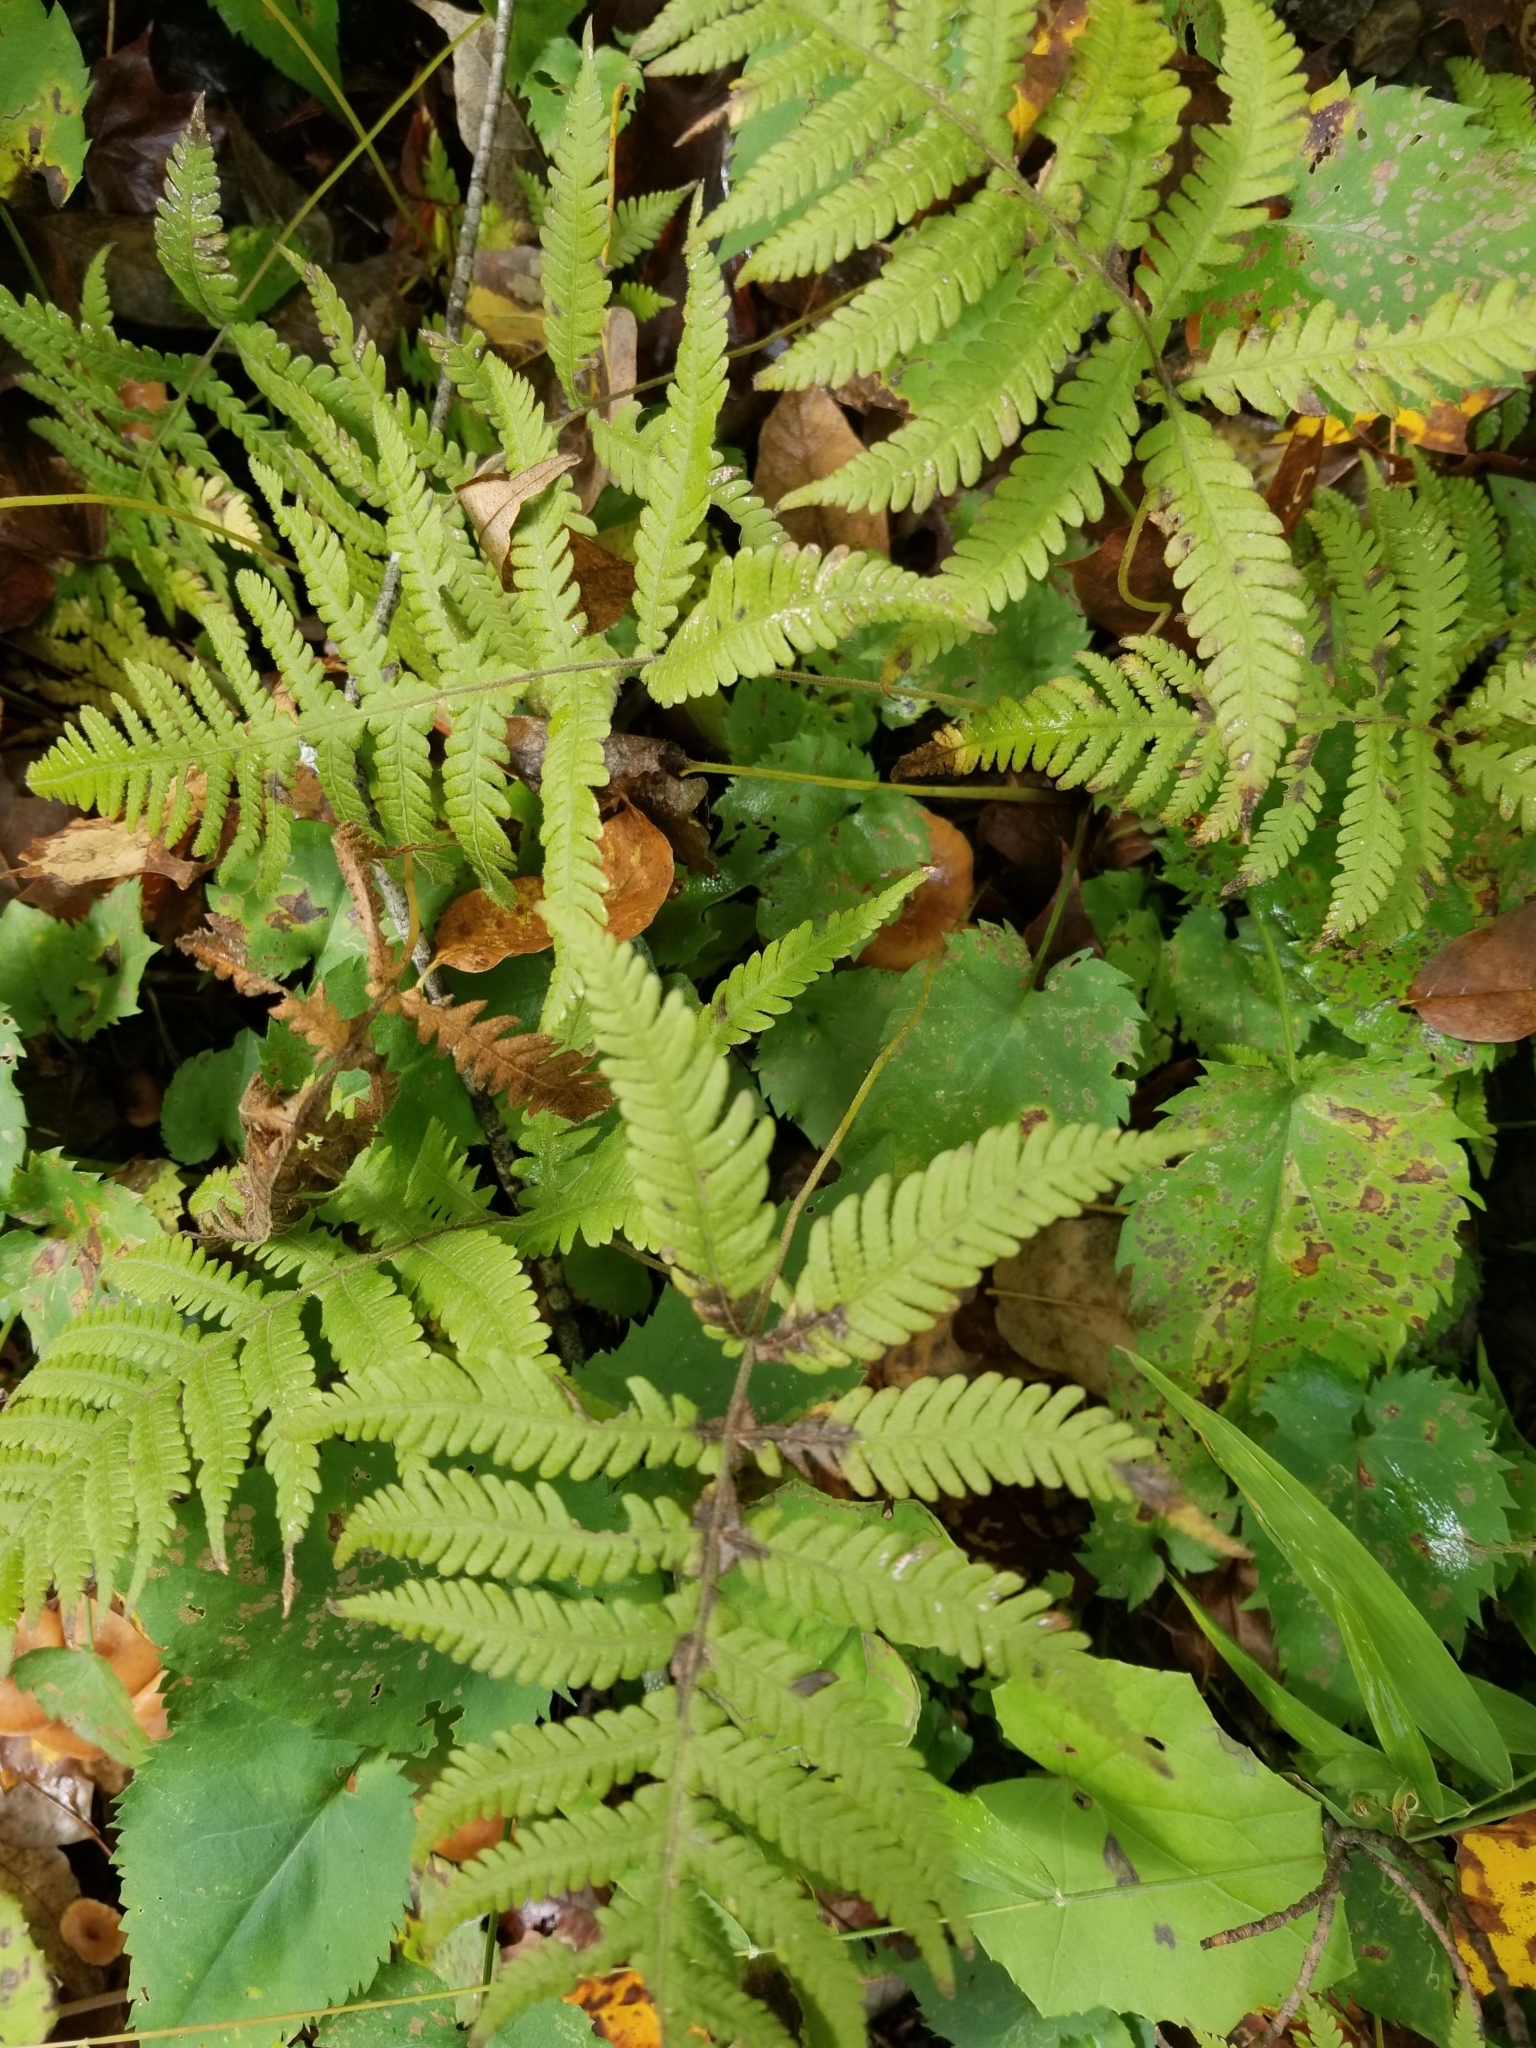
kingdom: Plantae
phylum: Tracheophyta
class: Polypodiopsida
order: Polypodiales
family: Thelypteridaceae
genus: Phegopteris
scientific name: Phegopteris connectilis
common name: Beech fern
